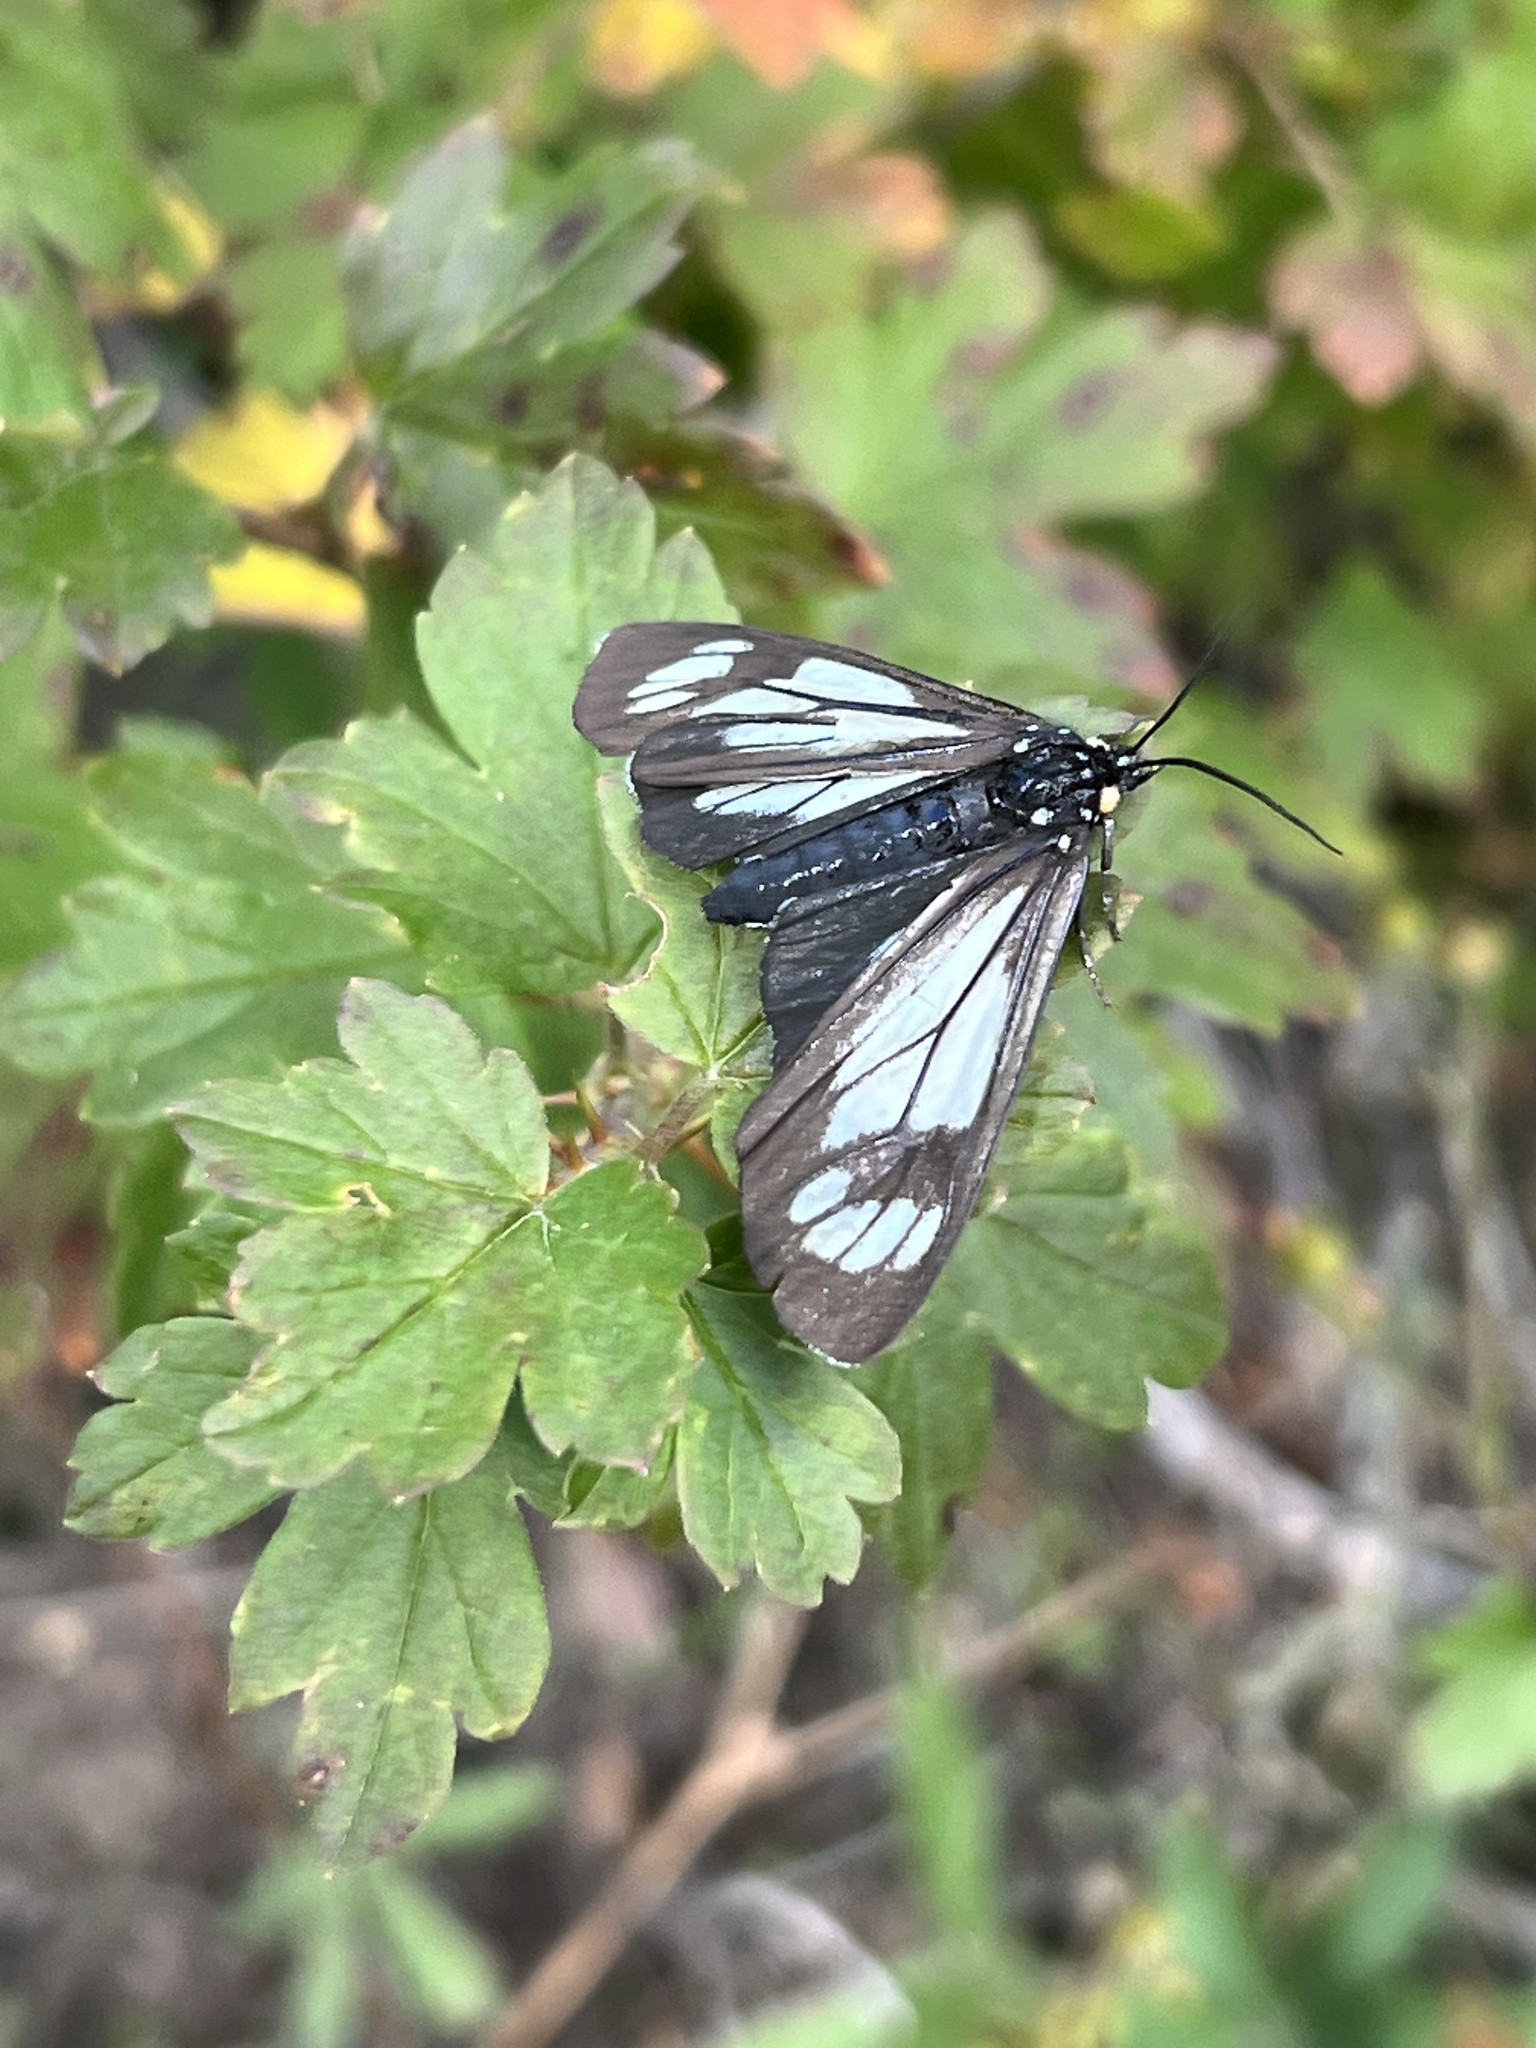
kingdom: Animalia
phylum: Arthropoda
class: Insecta
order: Lepidoptera
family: Erebidae
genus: Gnophaela
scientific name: Gnophaela vermiculata
